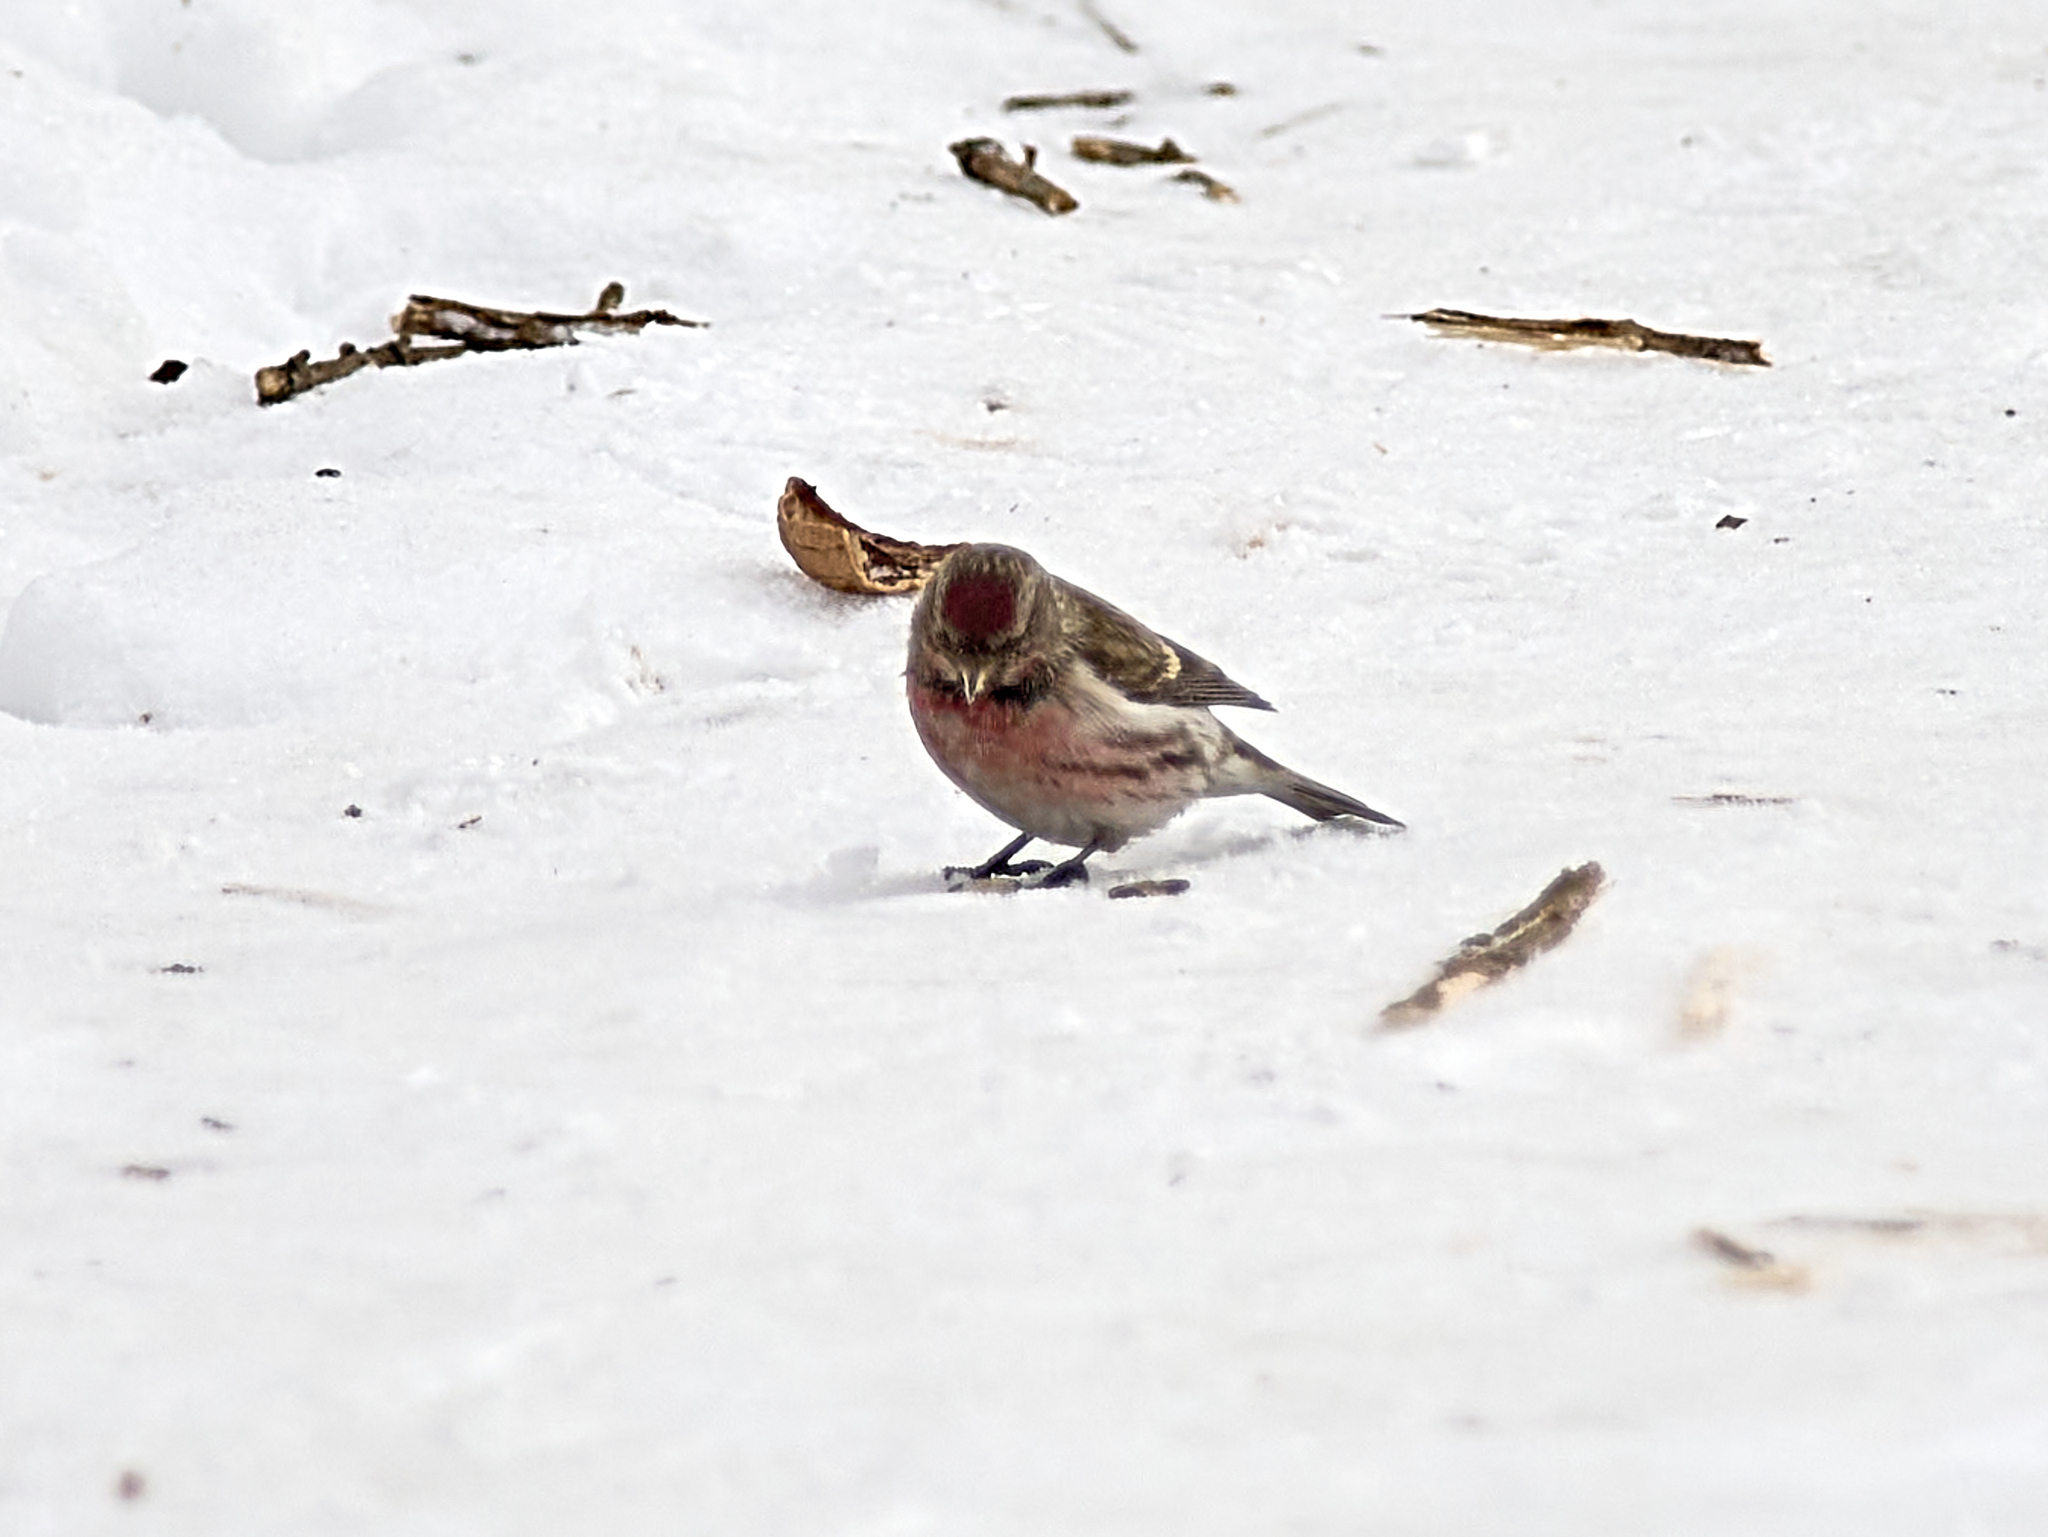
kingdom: Animalia
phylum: Chordata
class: Aves
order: Passeriformes
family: Fringillidae
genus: Acanthis
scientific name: Acanthis flammea
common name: Common redpoll
